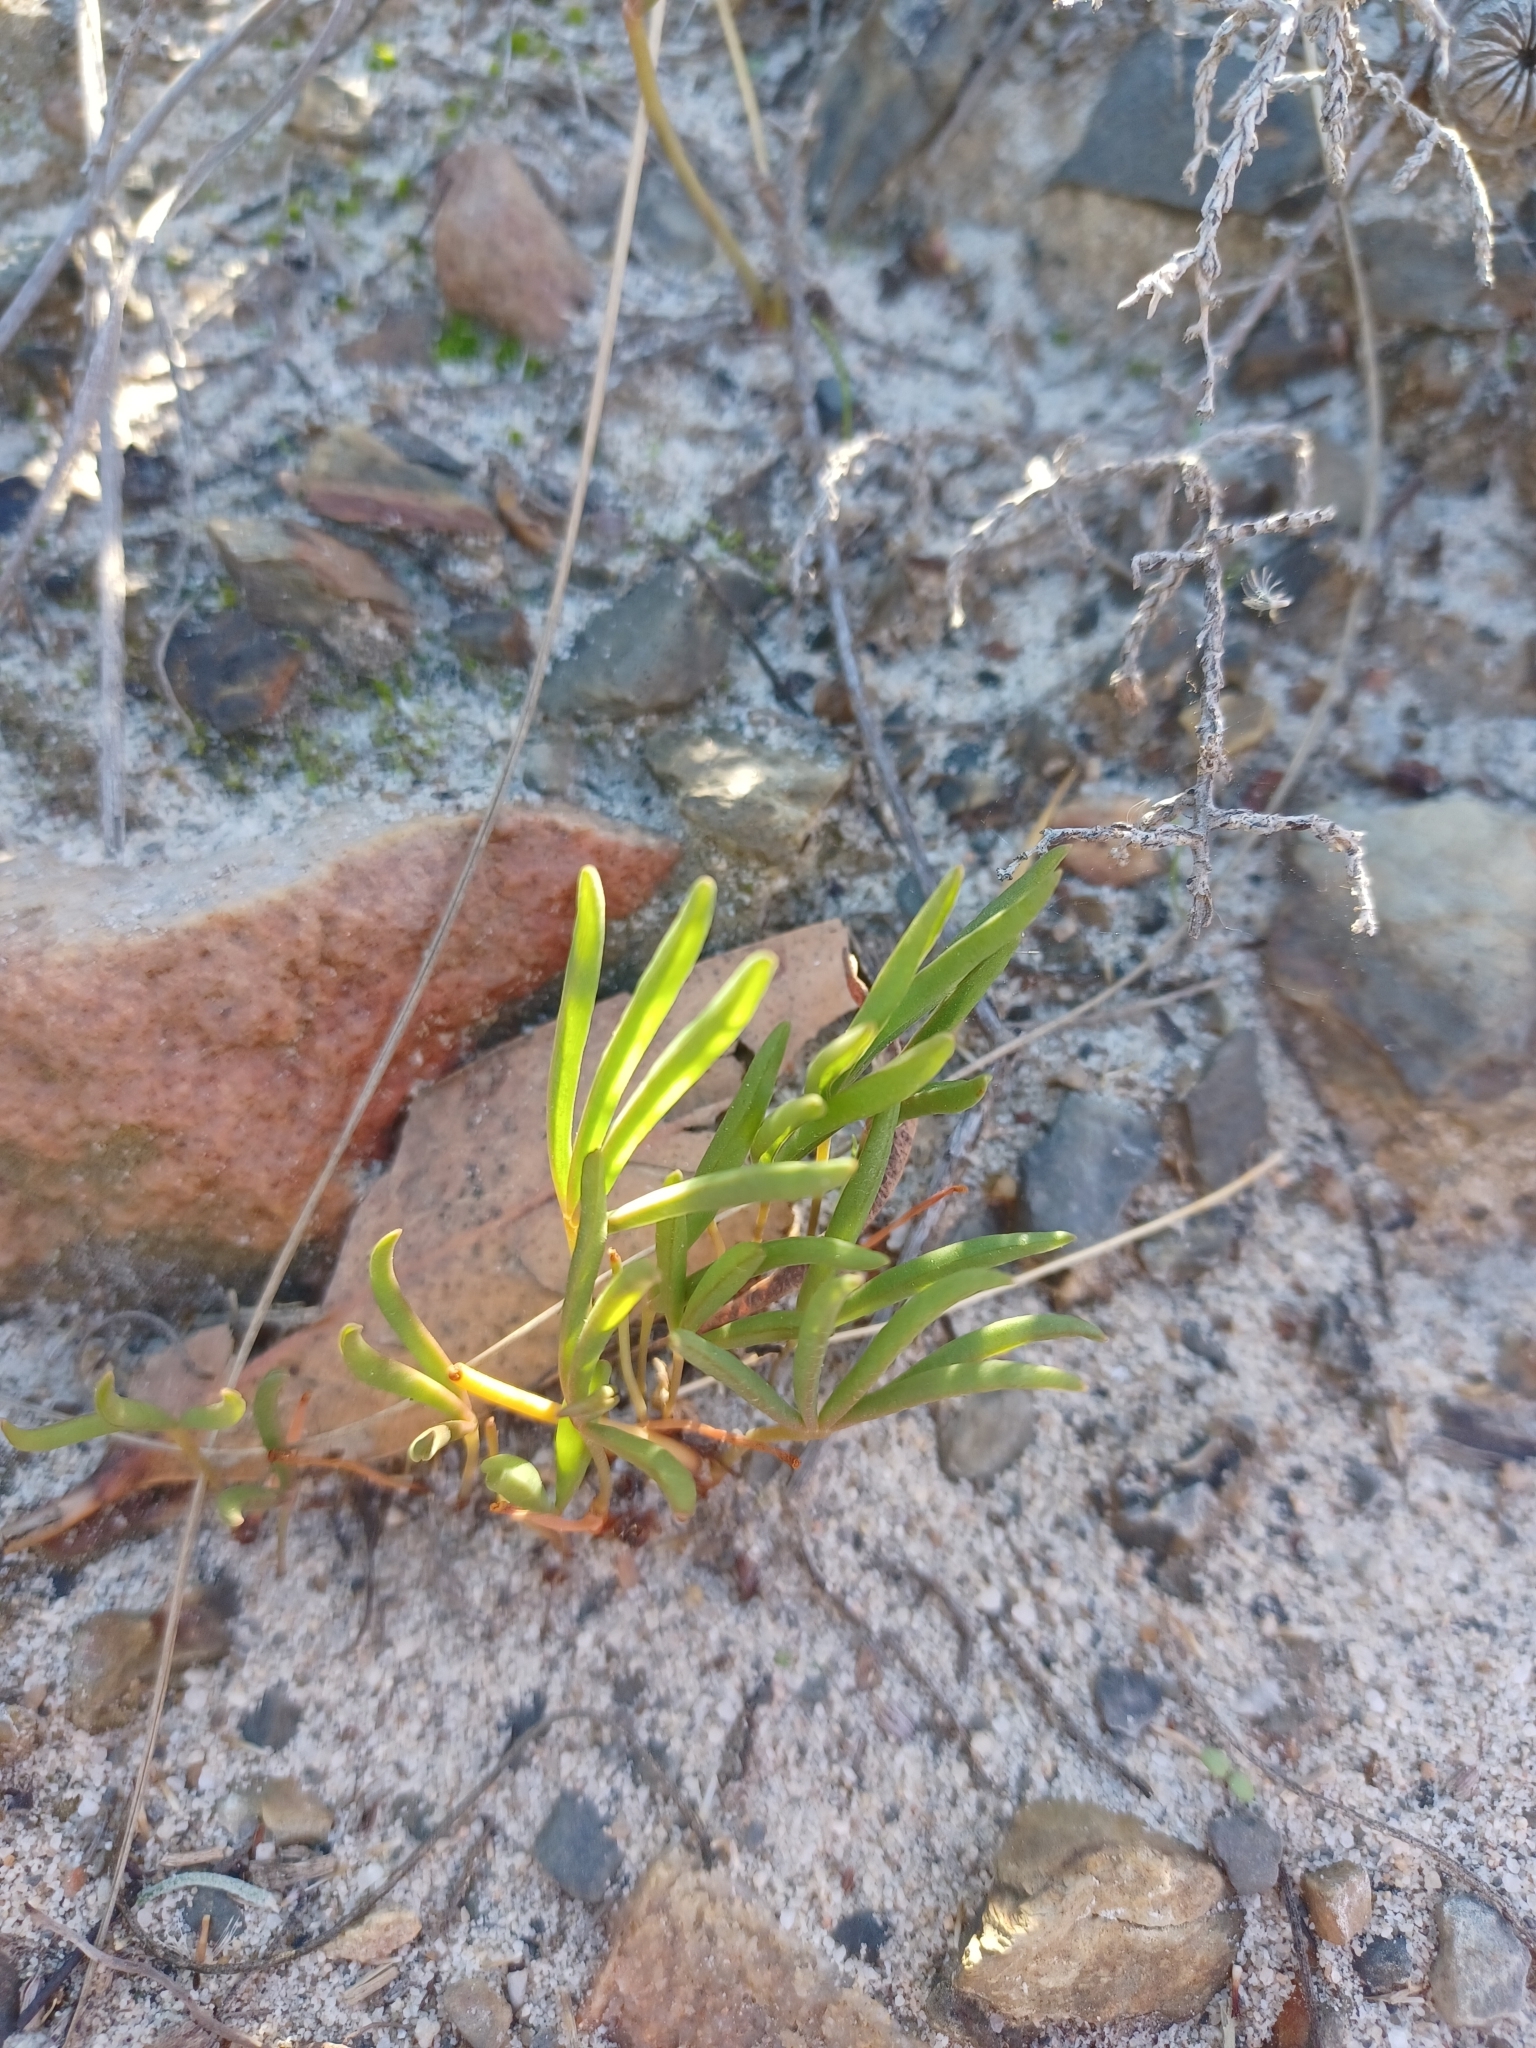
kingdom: Plantae
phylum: Tracheophyta
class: Magnoliopsida
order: Oxalidales
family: Oxalidaceae
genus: Oxalis
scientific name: Oxalis flava
